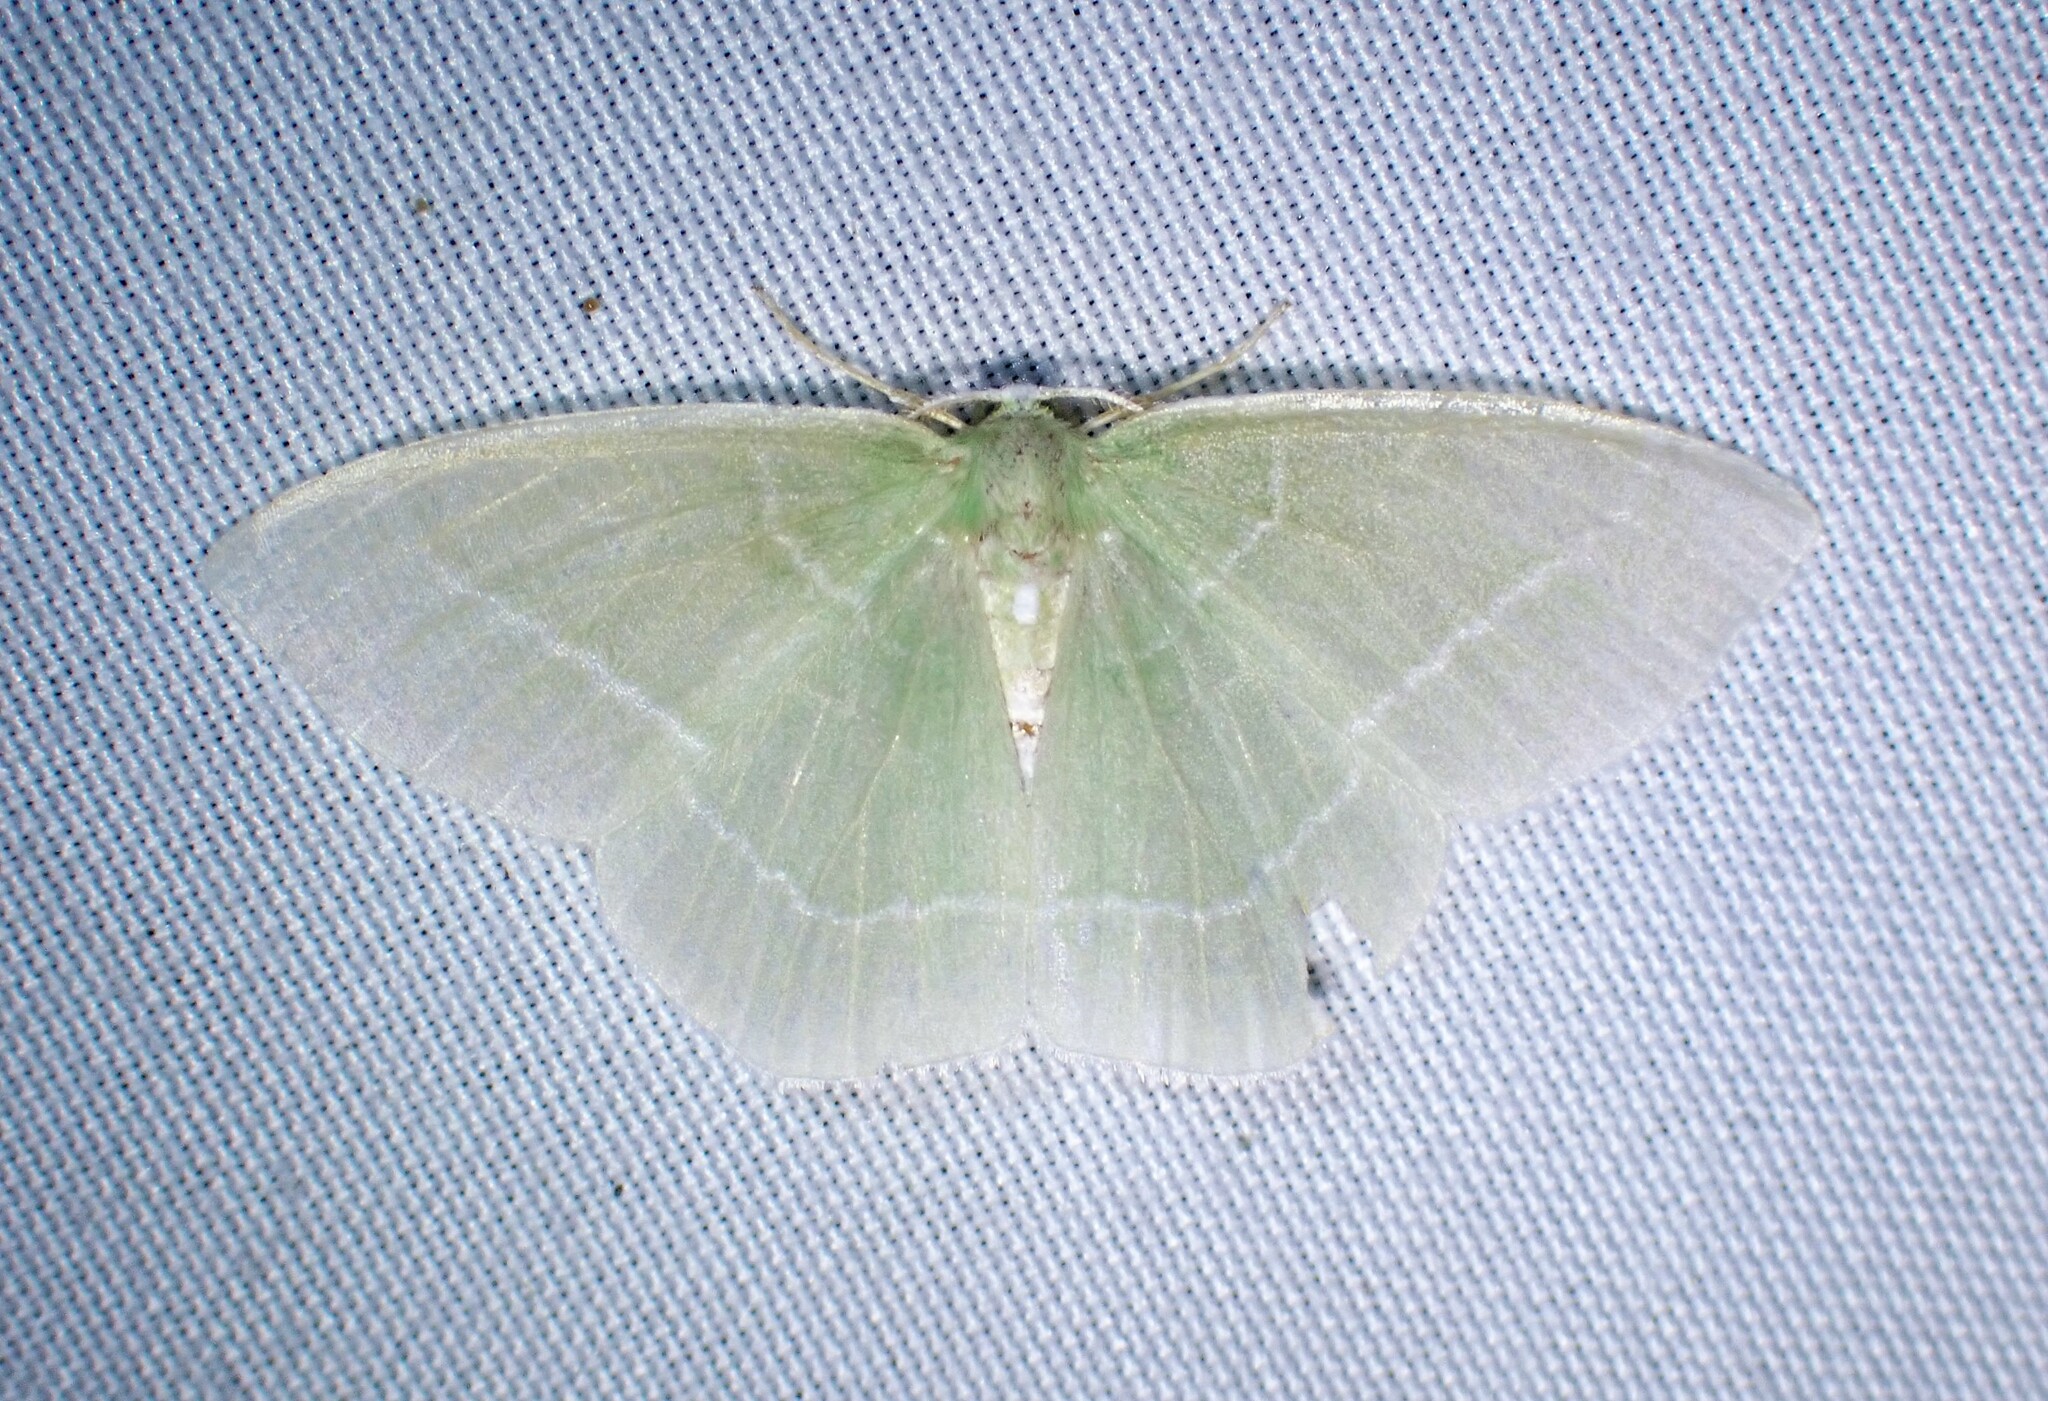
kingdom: Animalia
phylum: Arthropoda
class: Insecta
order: Lepidoptera
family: Geometridae
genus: Nemoria
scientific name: Nemoria mimosaria
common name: White-fringed emerald
